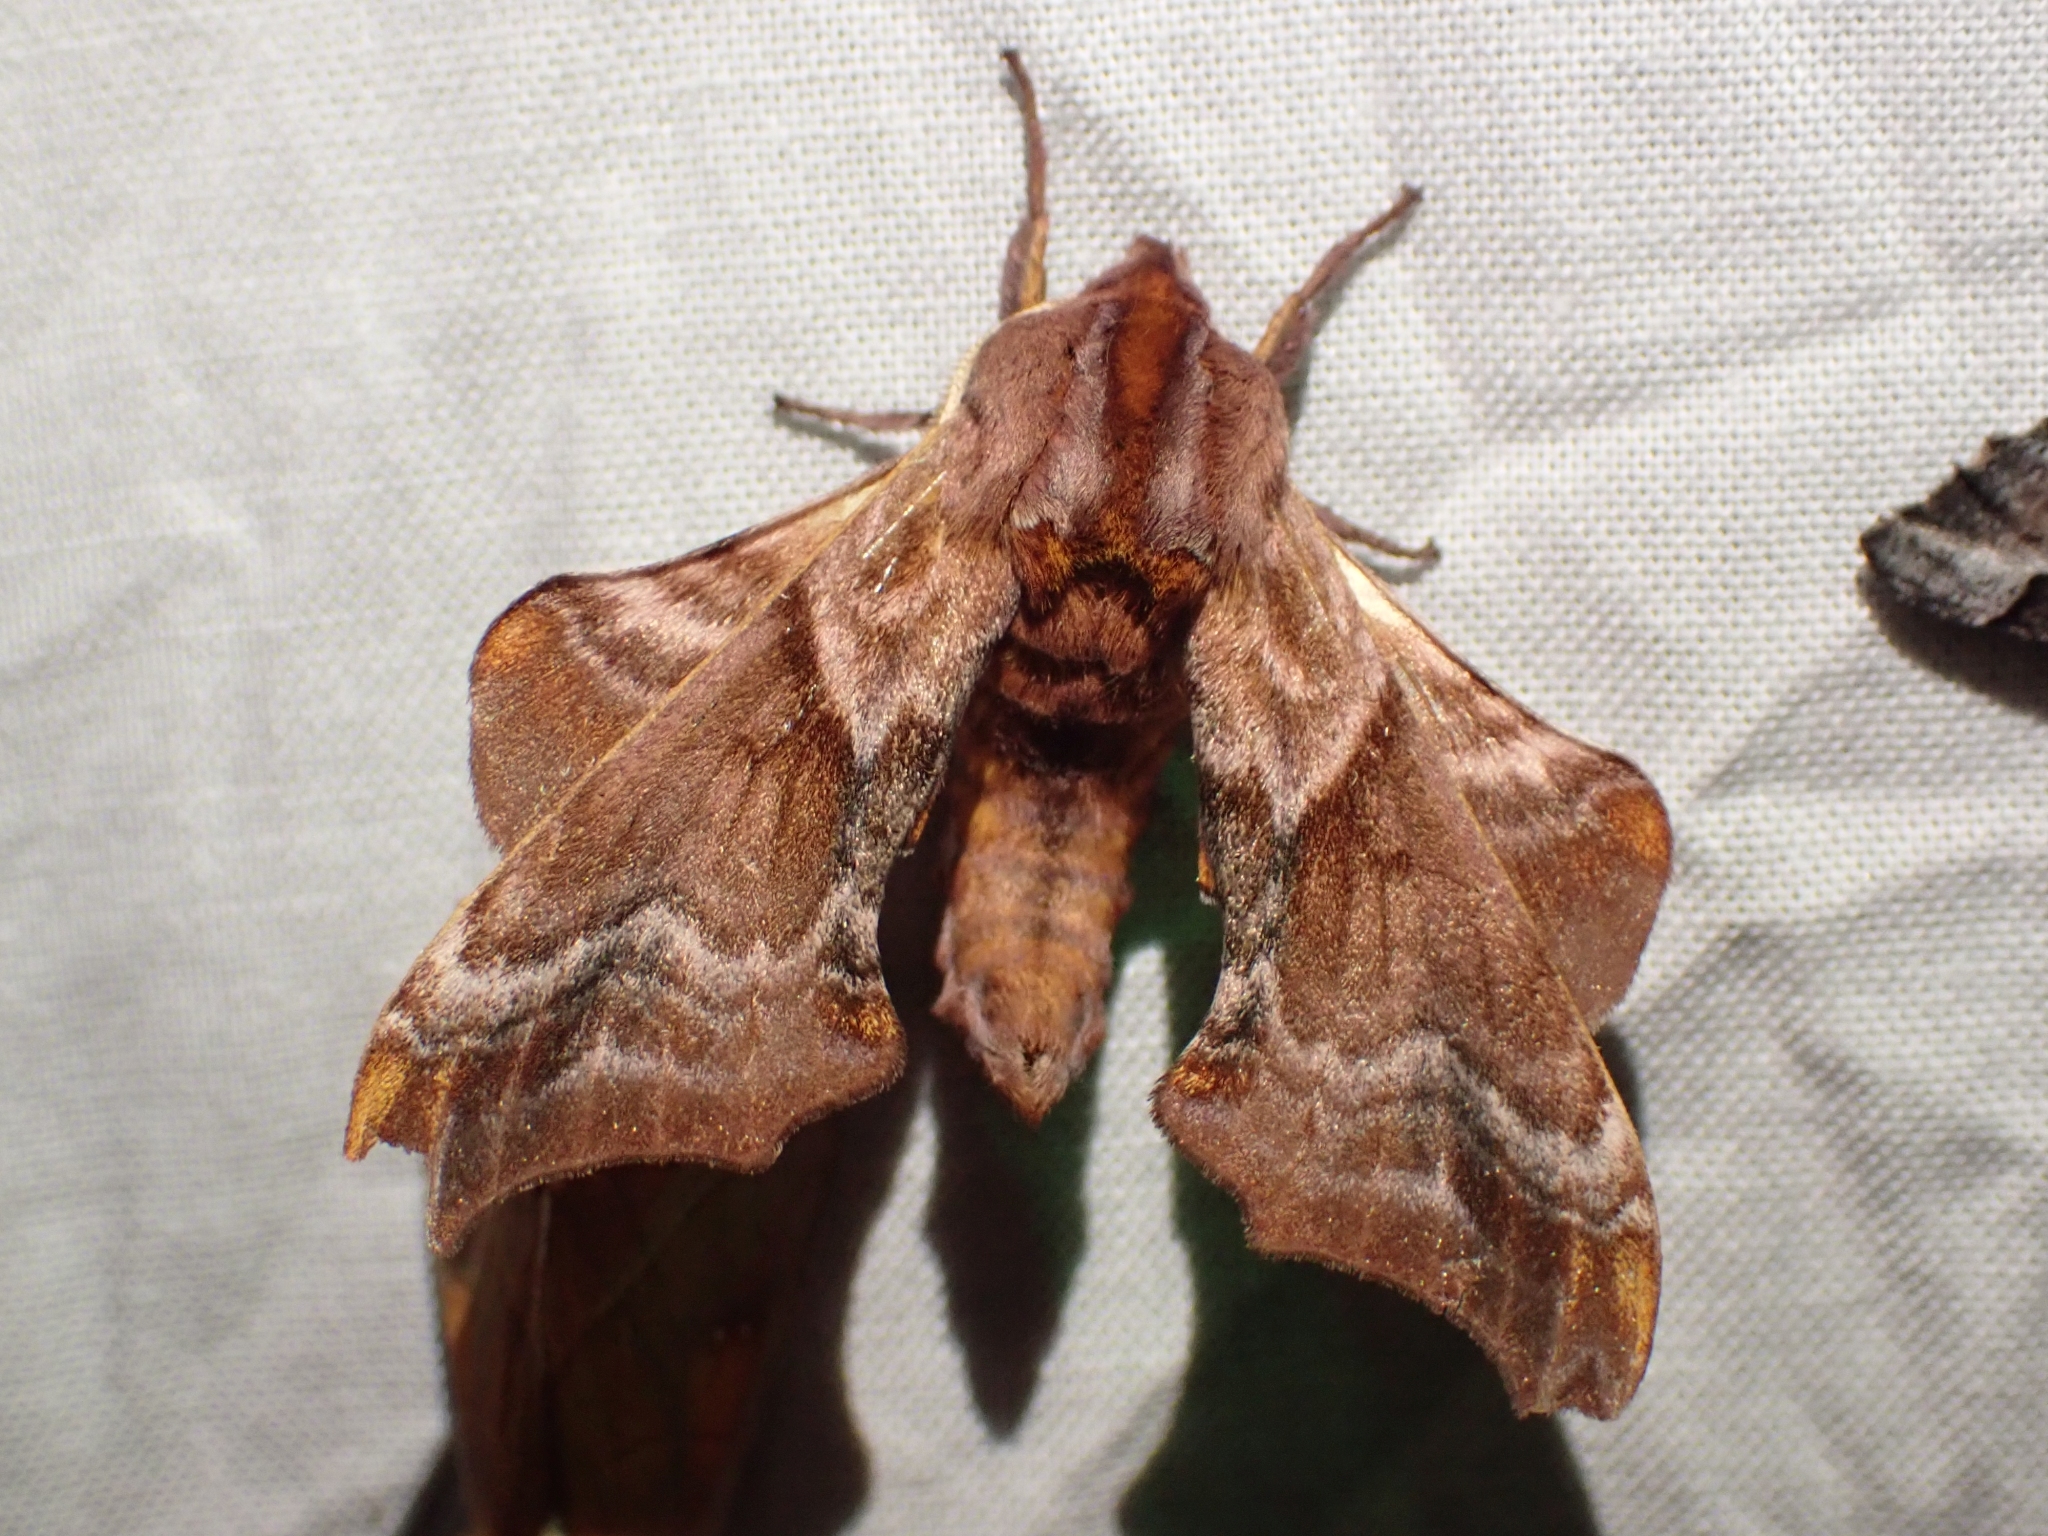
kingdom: Animalia
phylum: Arthropoda
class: Insecta
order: Lepidoptera
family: Sphingidae
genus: Paonias
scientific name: Paonias myops
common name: Small-eyed sphinx
